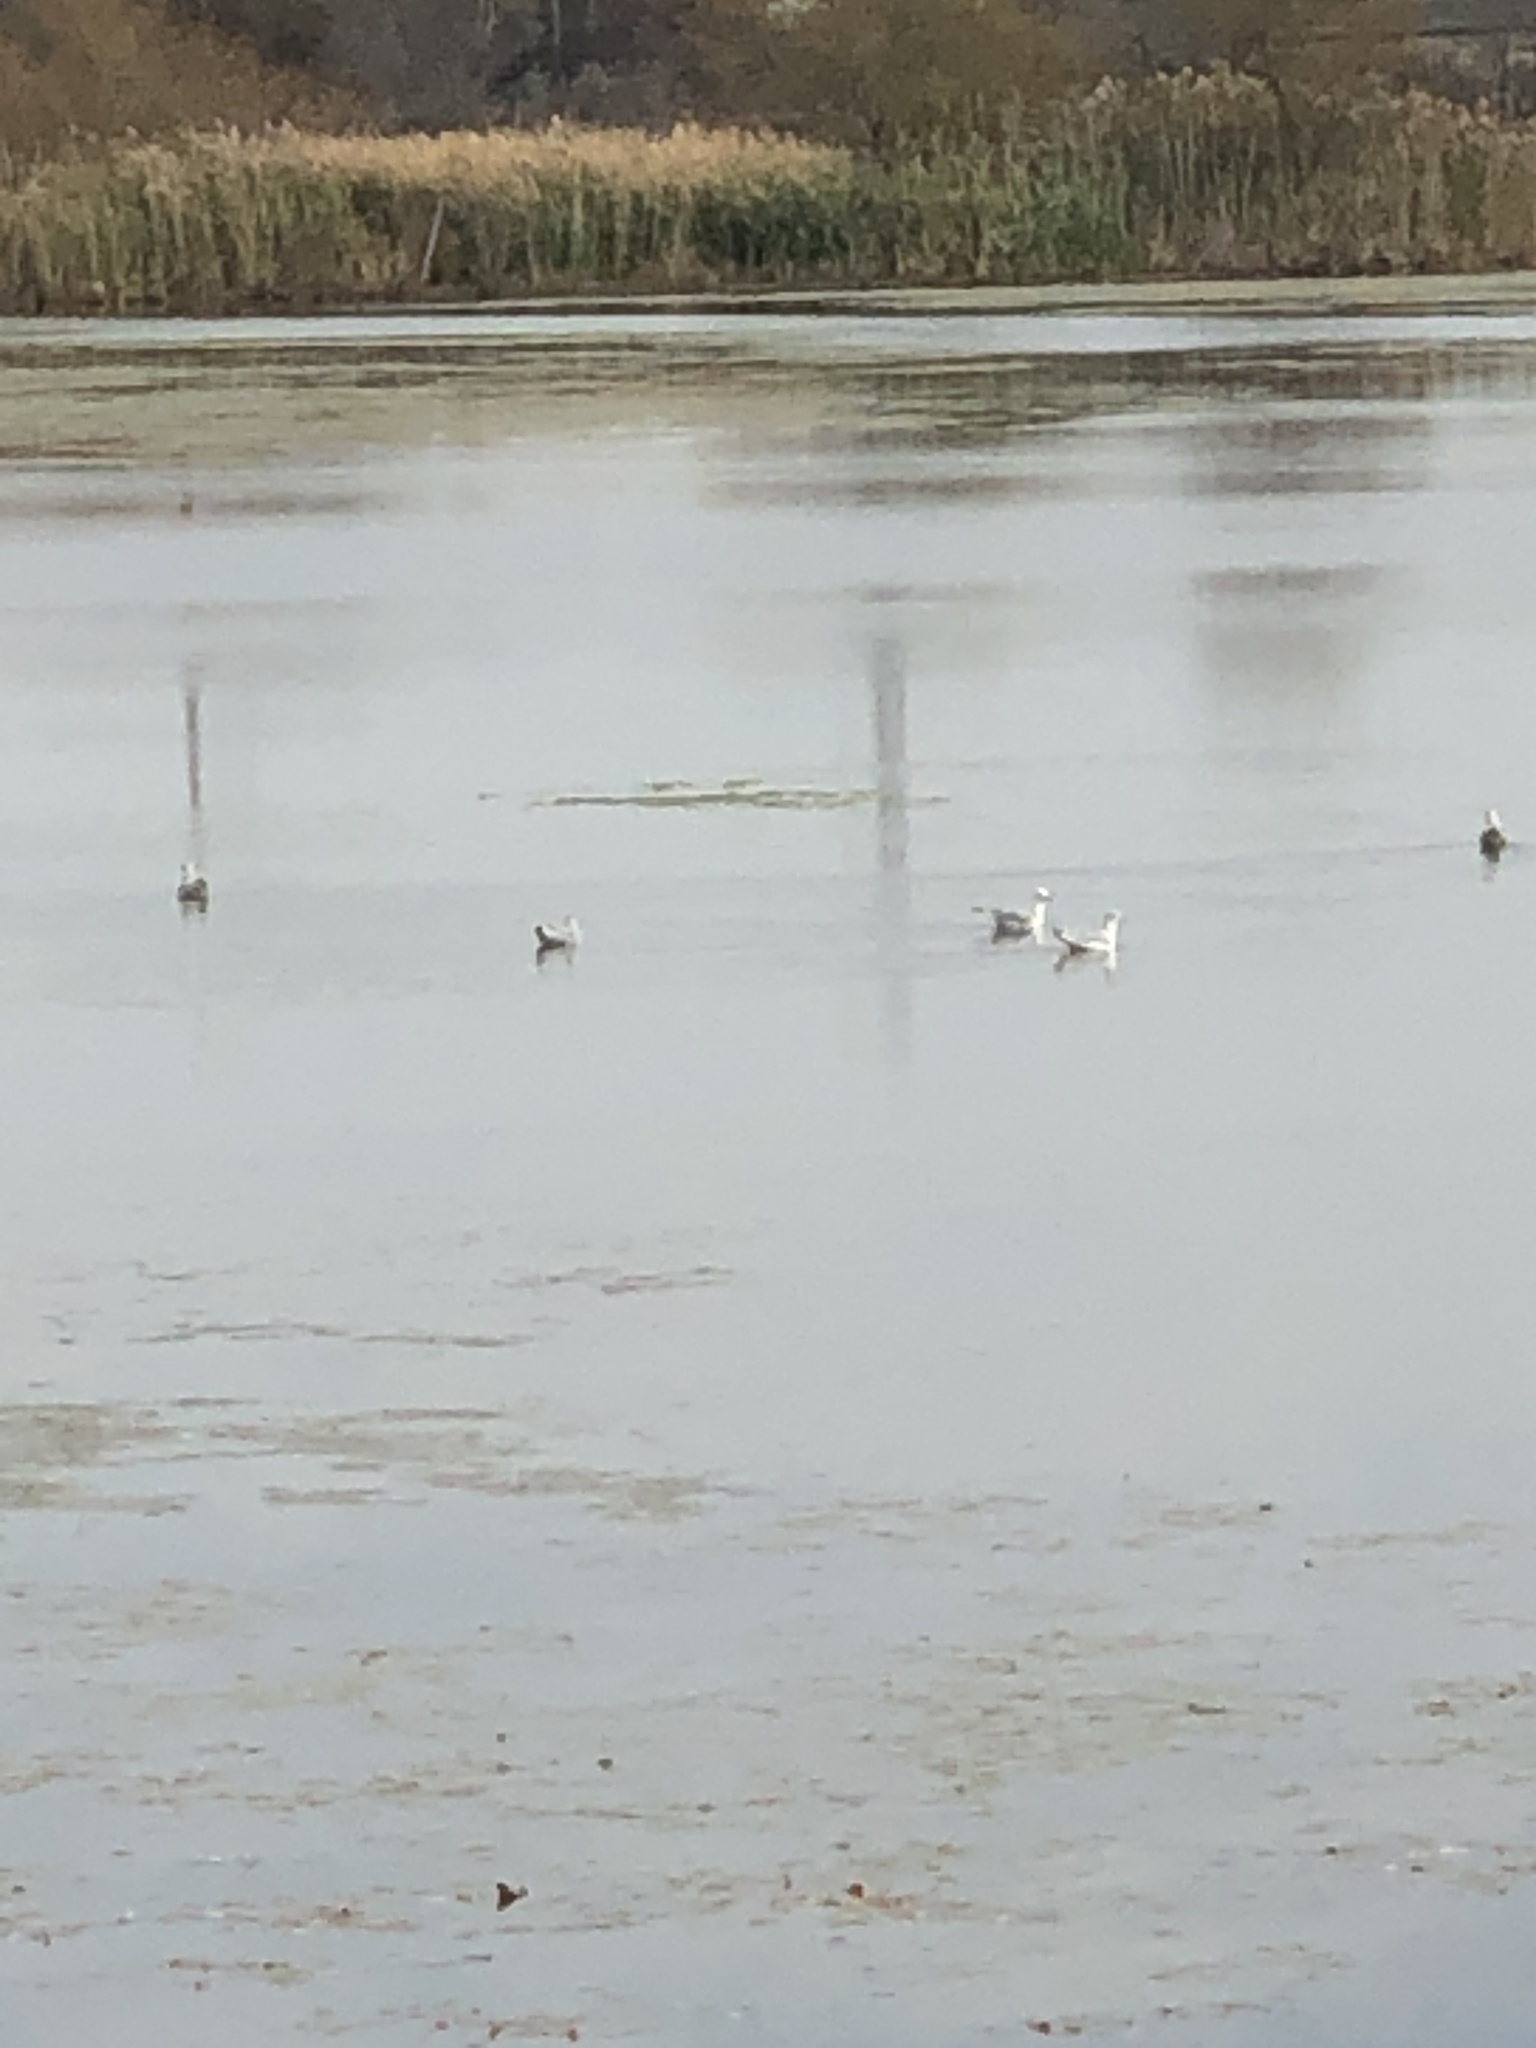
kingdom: Animalia
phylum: Chordata
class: Aves
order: Charadriiformes
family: Laridae
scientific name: Laridae
